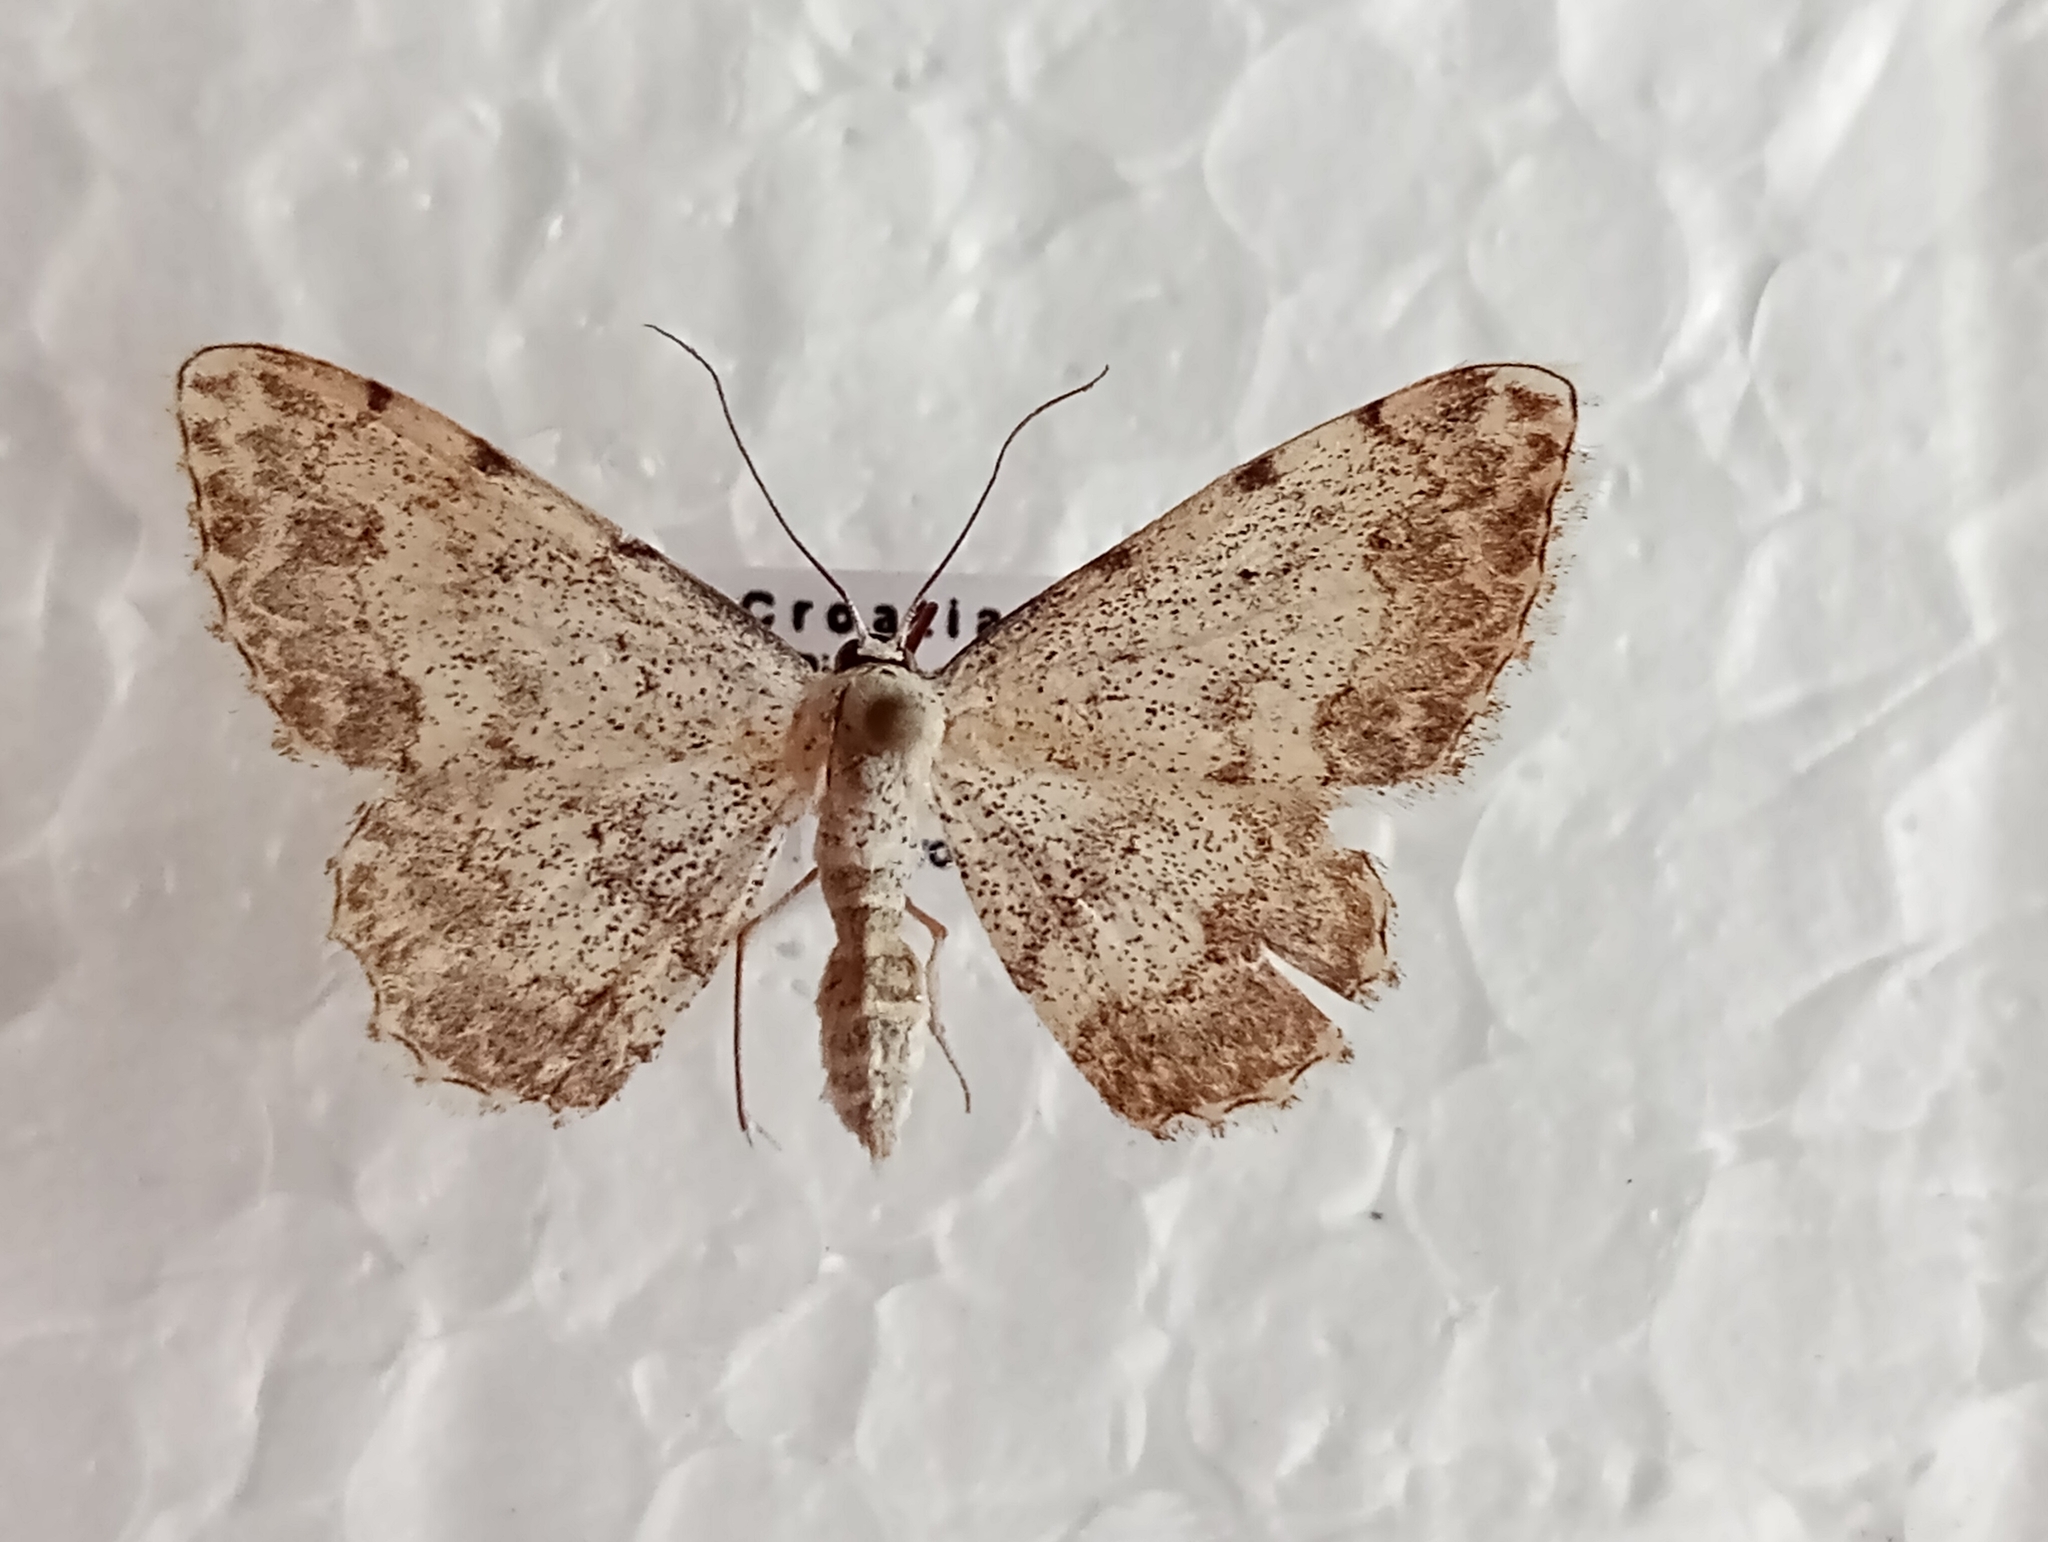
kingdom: Animalia
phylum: Arthropoda
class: Insecta
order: Lepidoptera
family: Geometridae
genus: Scopula
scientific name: Scopula submutata
